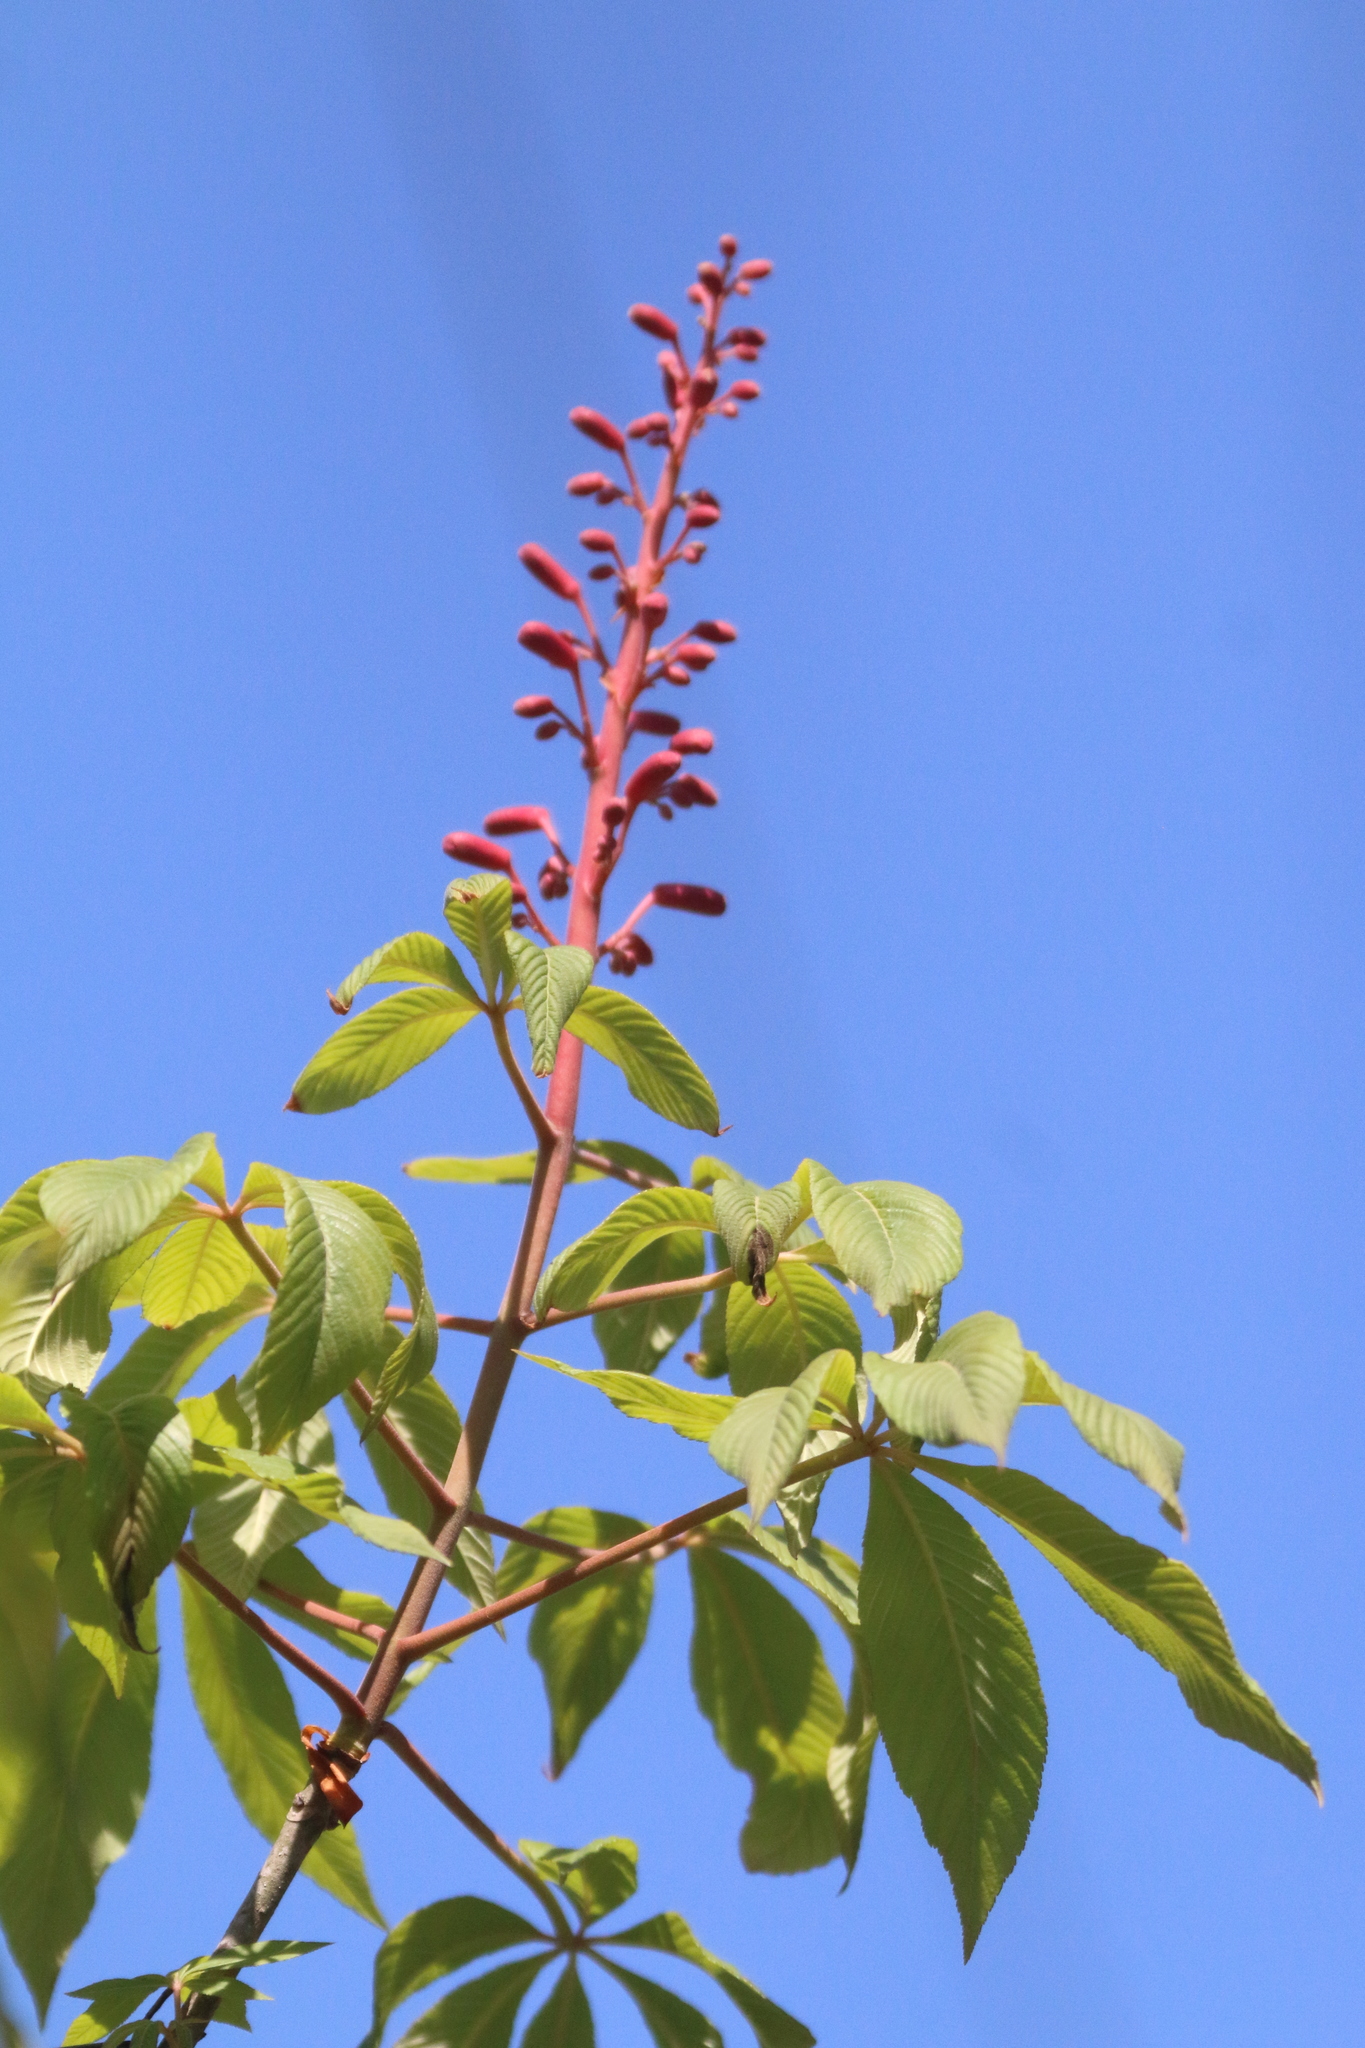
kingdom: Plantae
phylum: Tracheophyta
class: Magnoliopsida
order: Sapindales
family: Sapindaceae
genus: Aesculus
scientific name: Aesculus pavia
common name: Red buckeye
